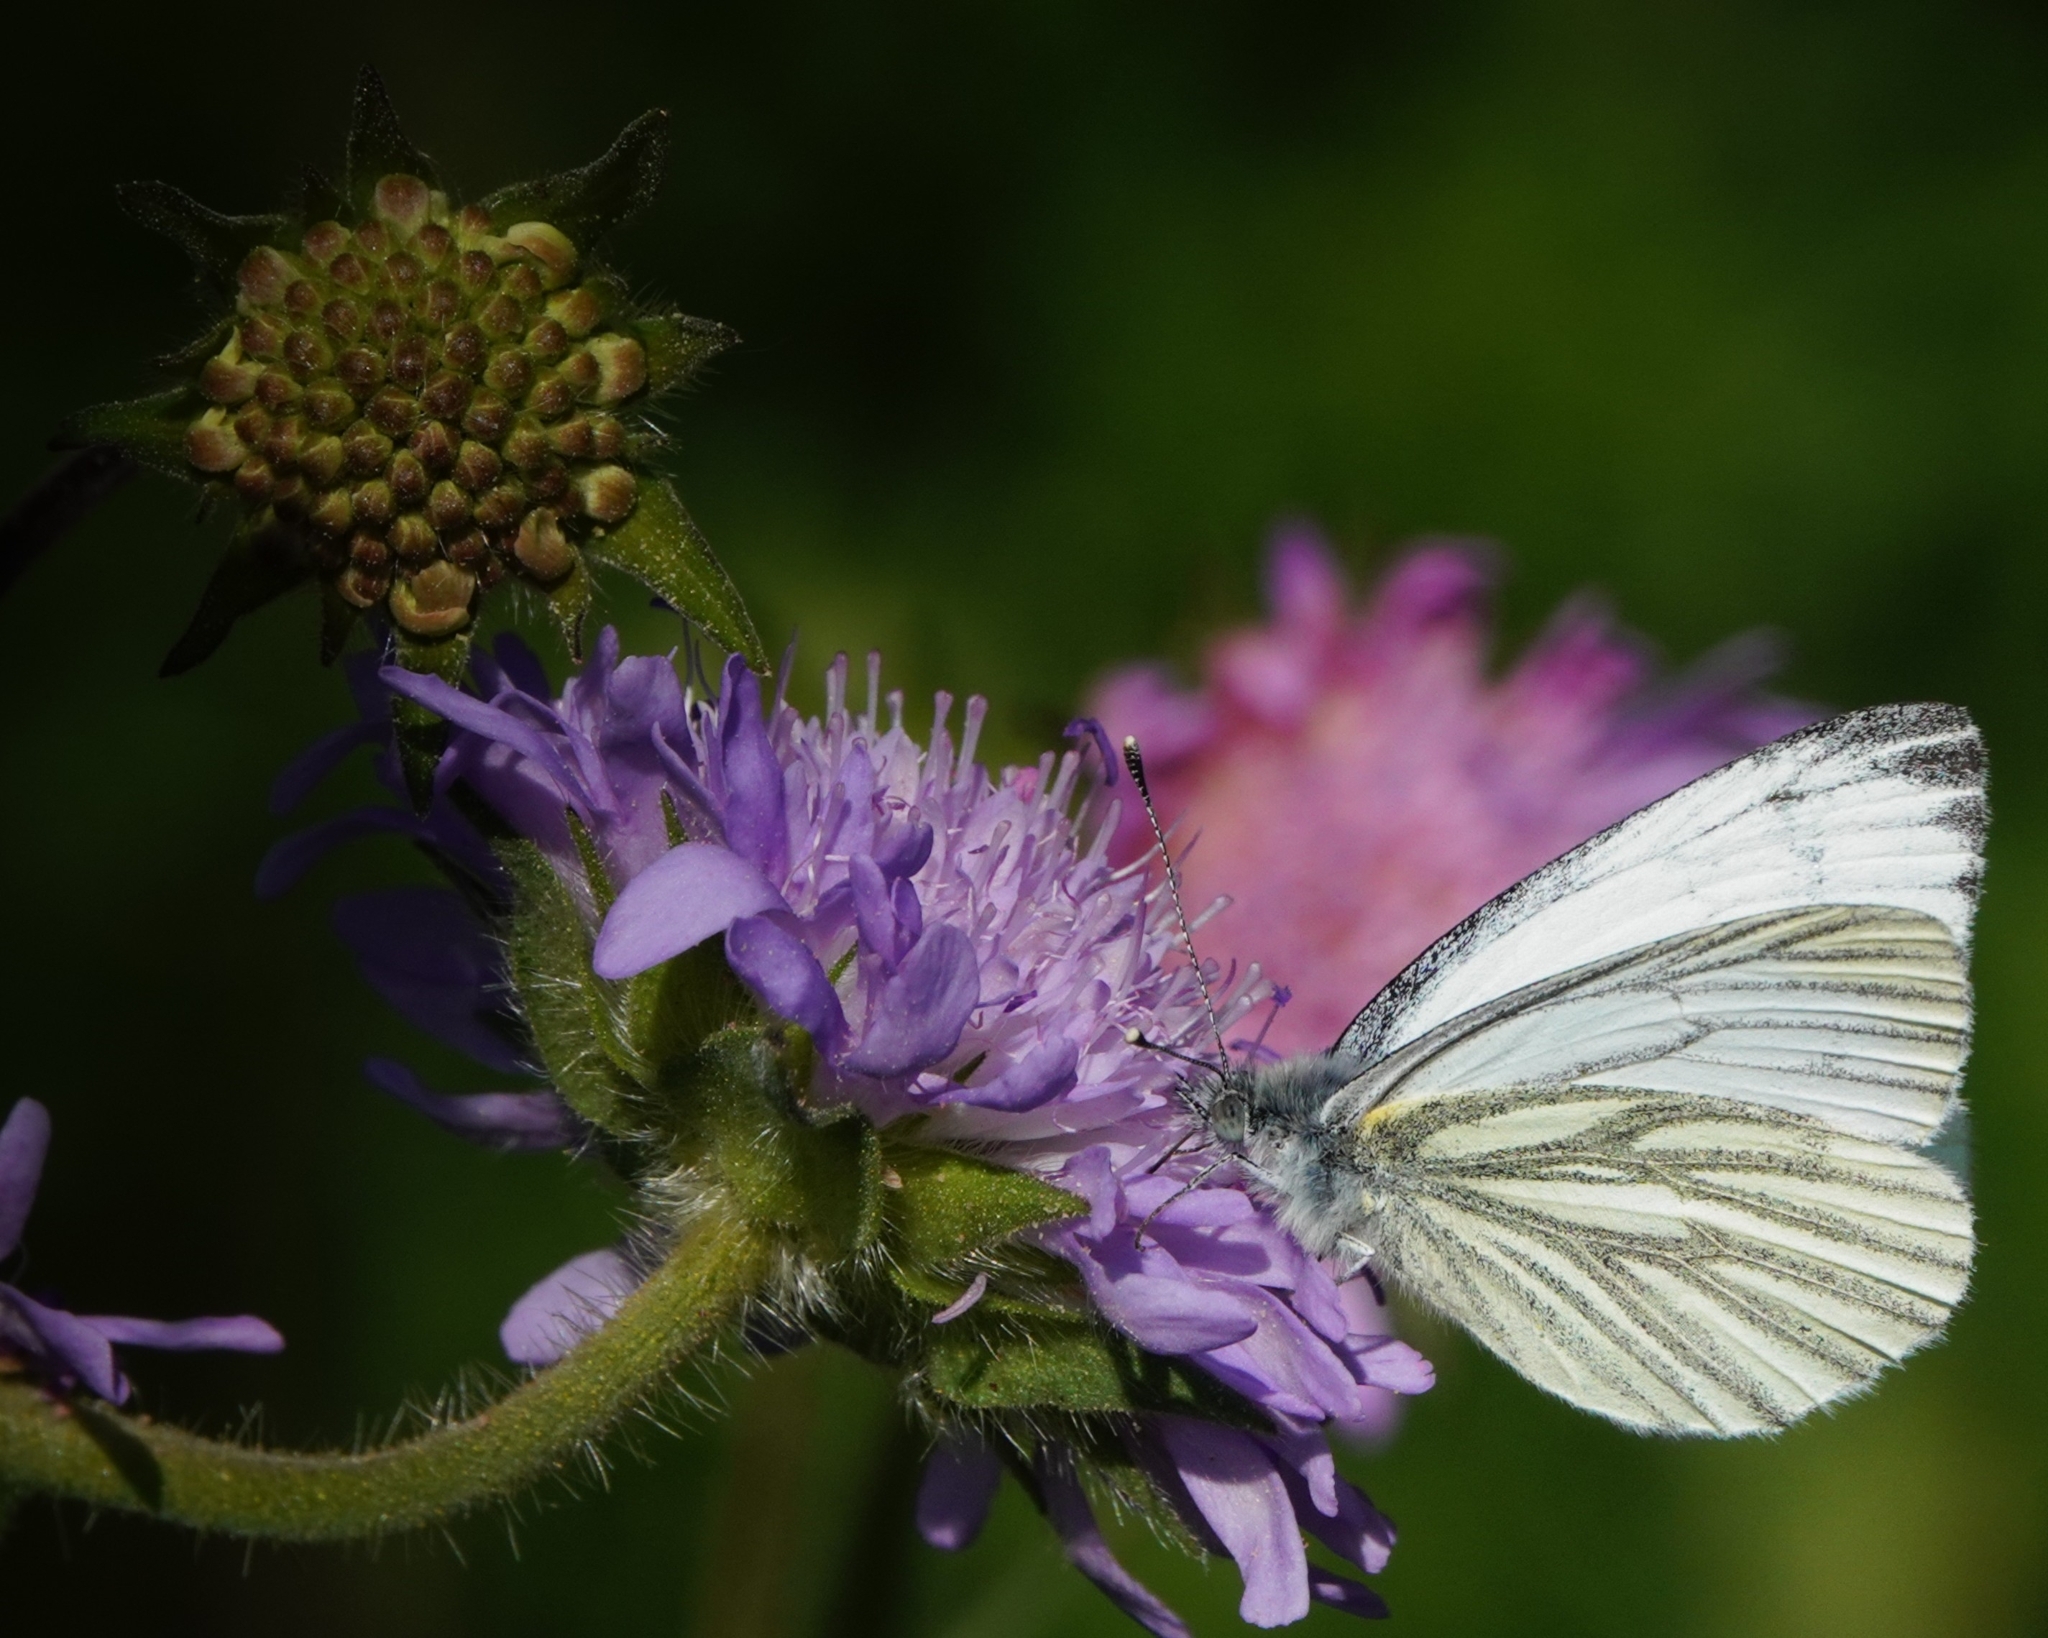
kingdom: Animalia
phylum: Arthropoda
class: Insecta
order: Lepidoptera
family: Pieridae
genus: Pieris
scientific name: Pieris napi
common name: Green-veined white
